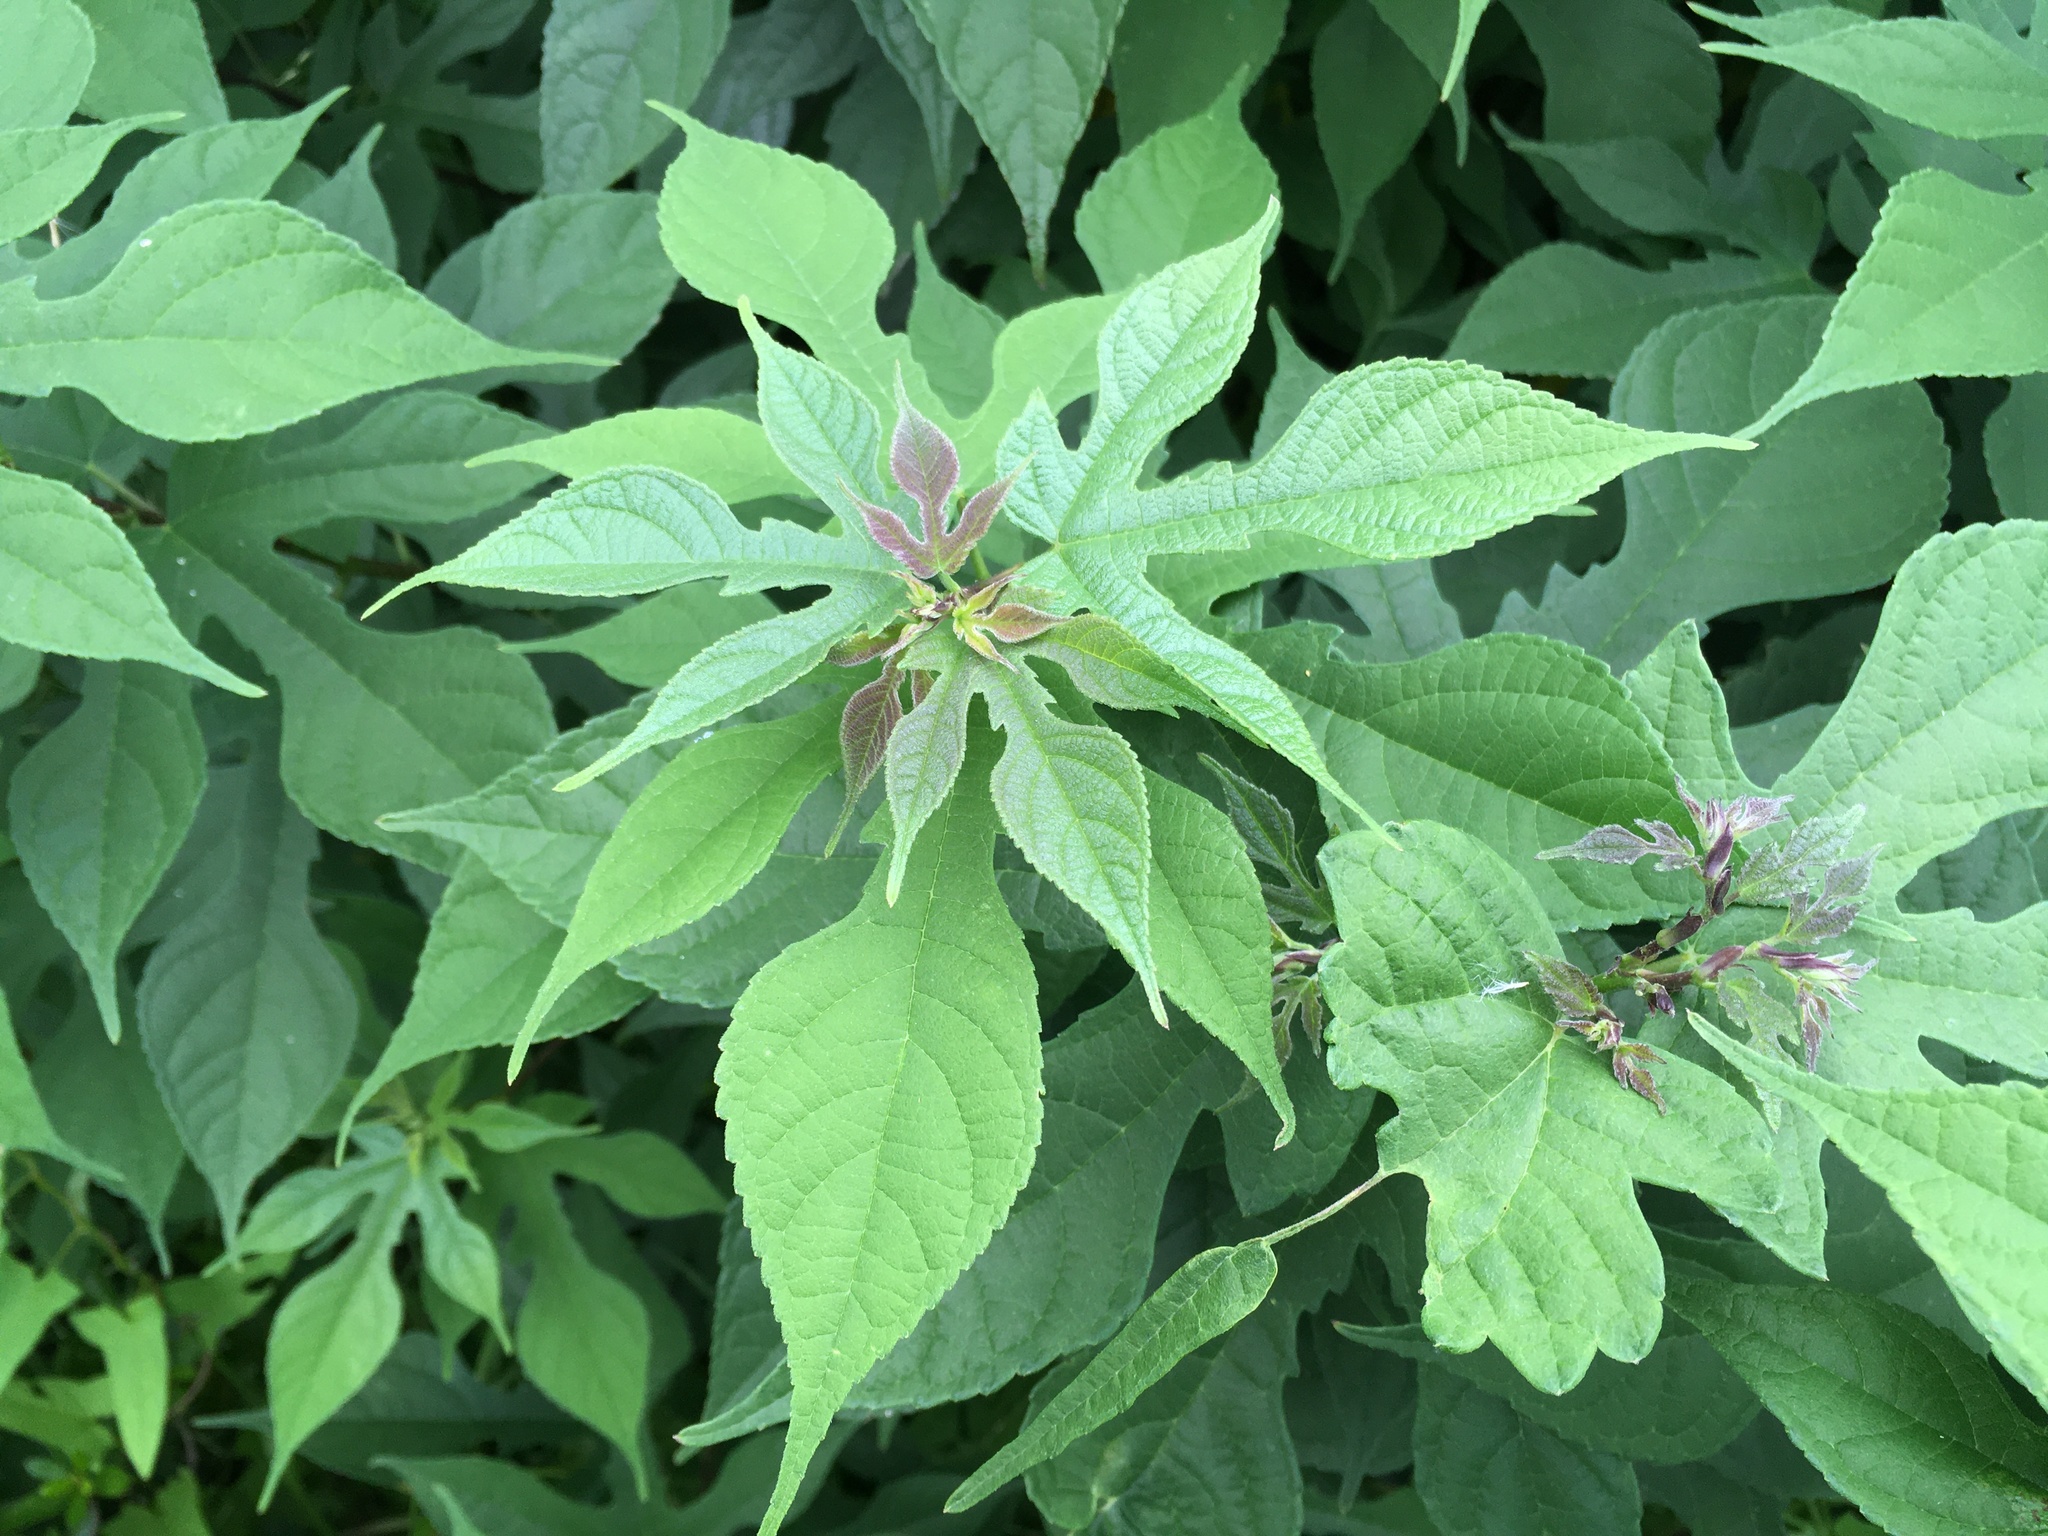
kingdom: Plantae
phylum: Tracheophyta
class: Magnoliopsida
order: Rosales
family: Moraceae
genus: Broussonetia
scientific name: Broussonetia papyrifera
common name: Paper mulberry
